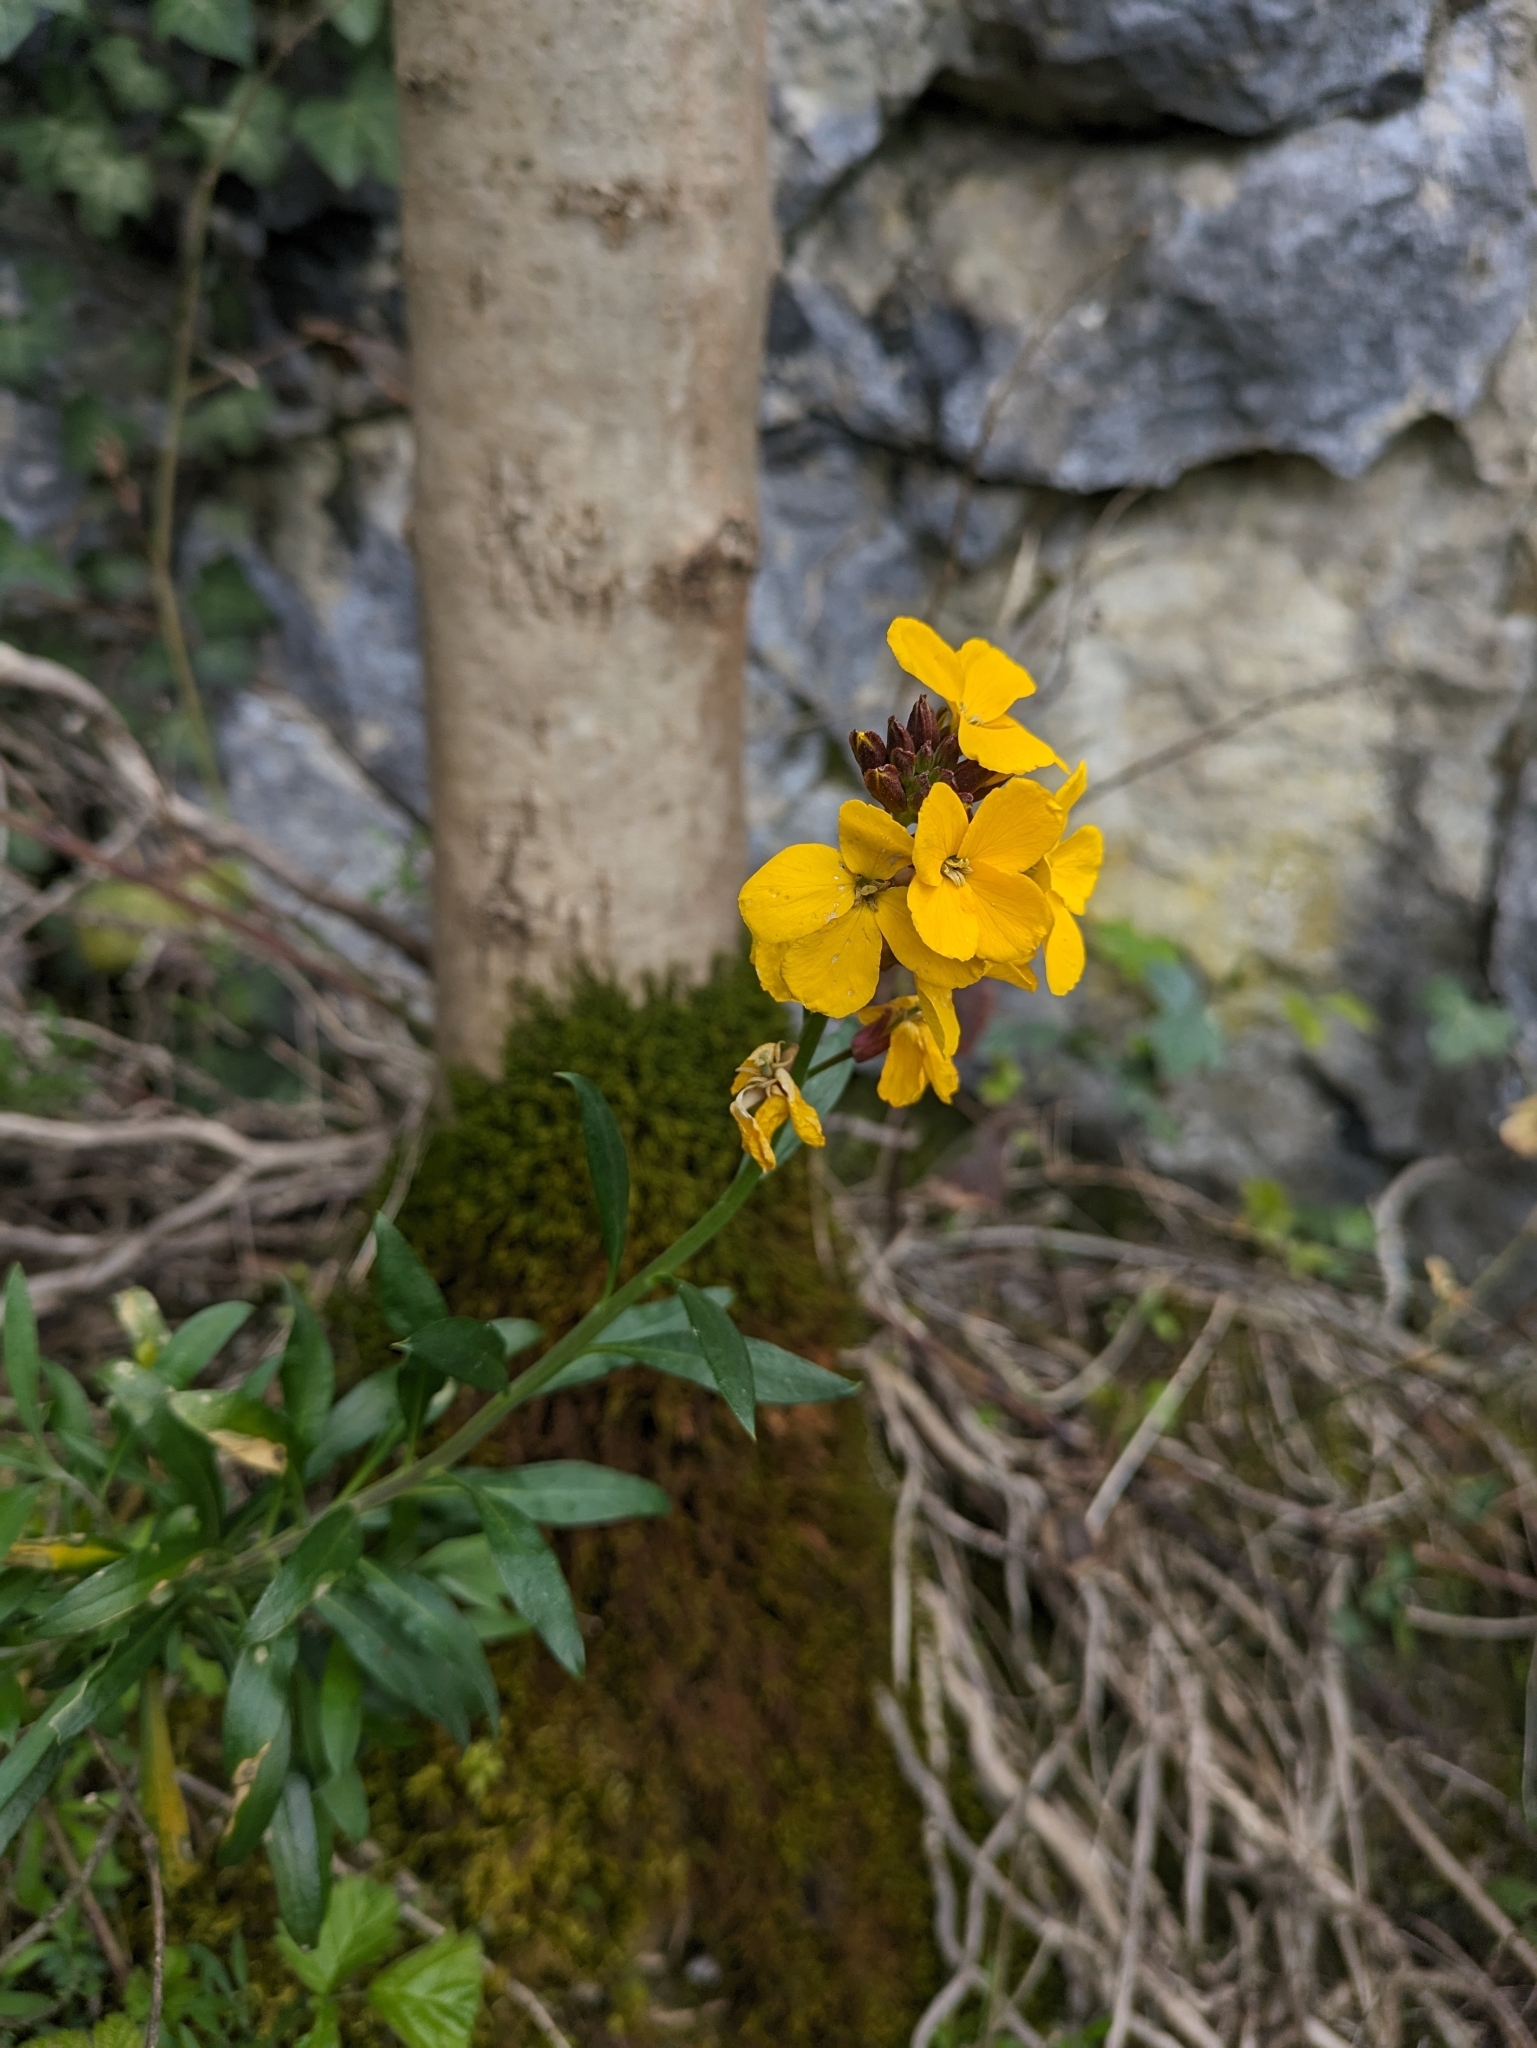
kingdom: Plantae
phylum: Tracheophyta
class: Magnoliopsida
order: Brassicales
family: Brassicaceae
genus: Erysimum
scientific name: Erysimum cheiri
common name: Wallflower
